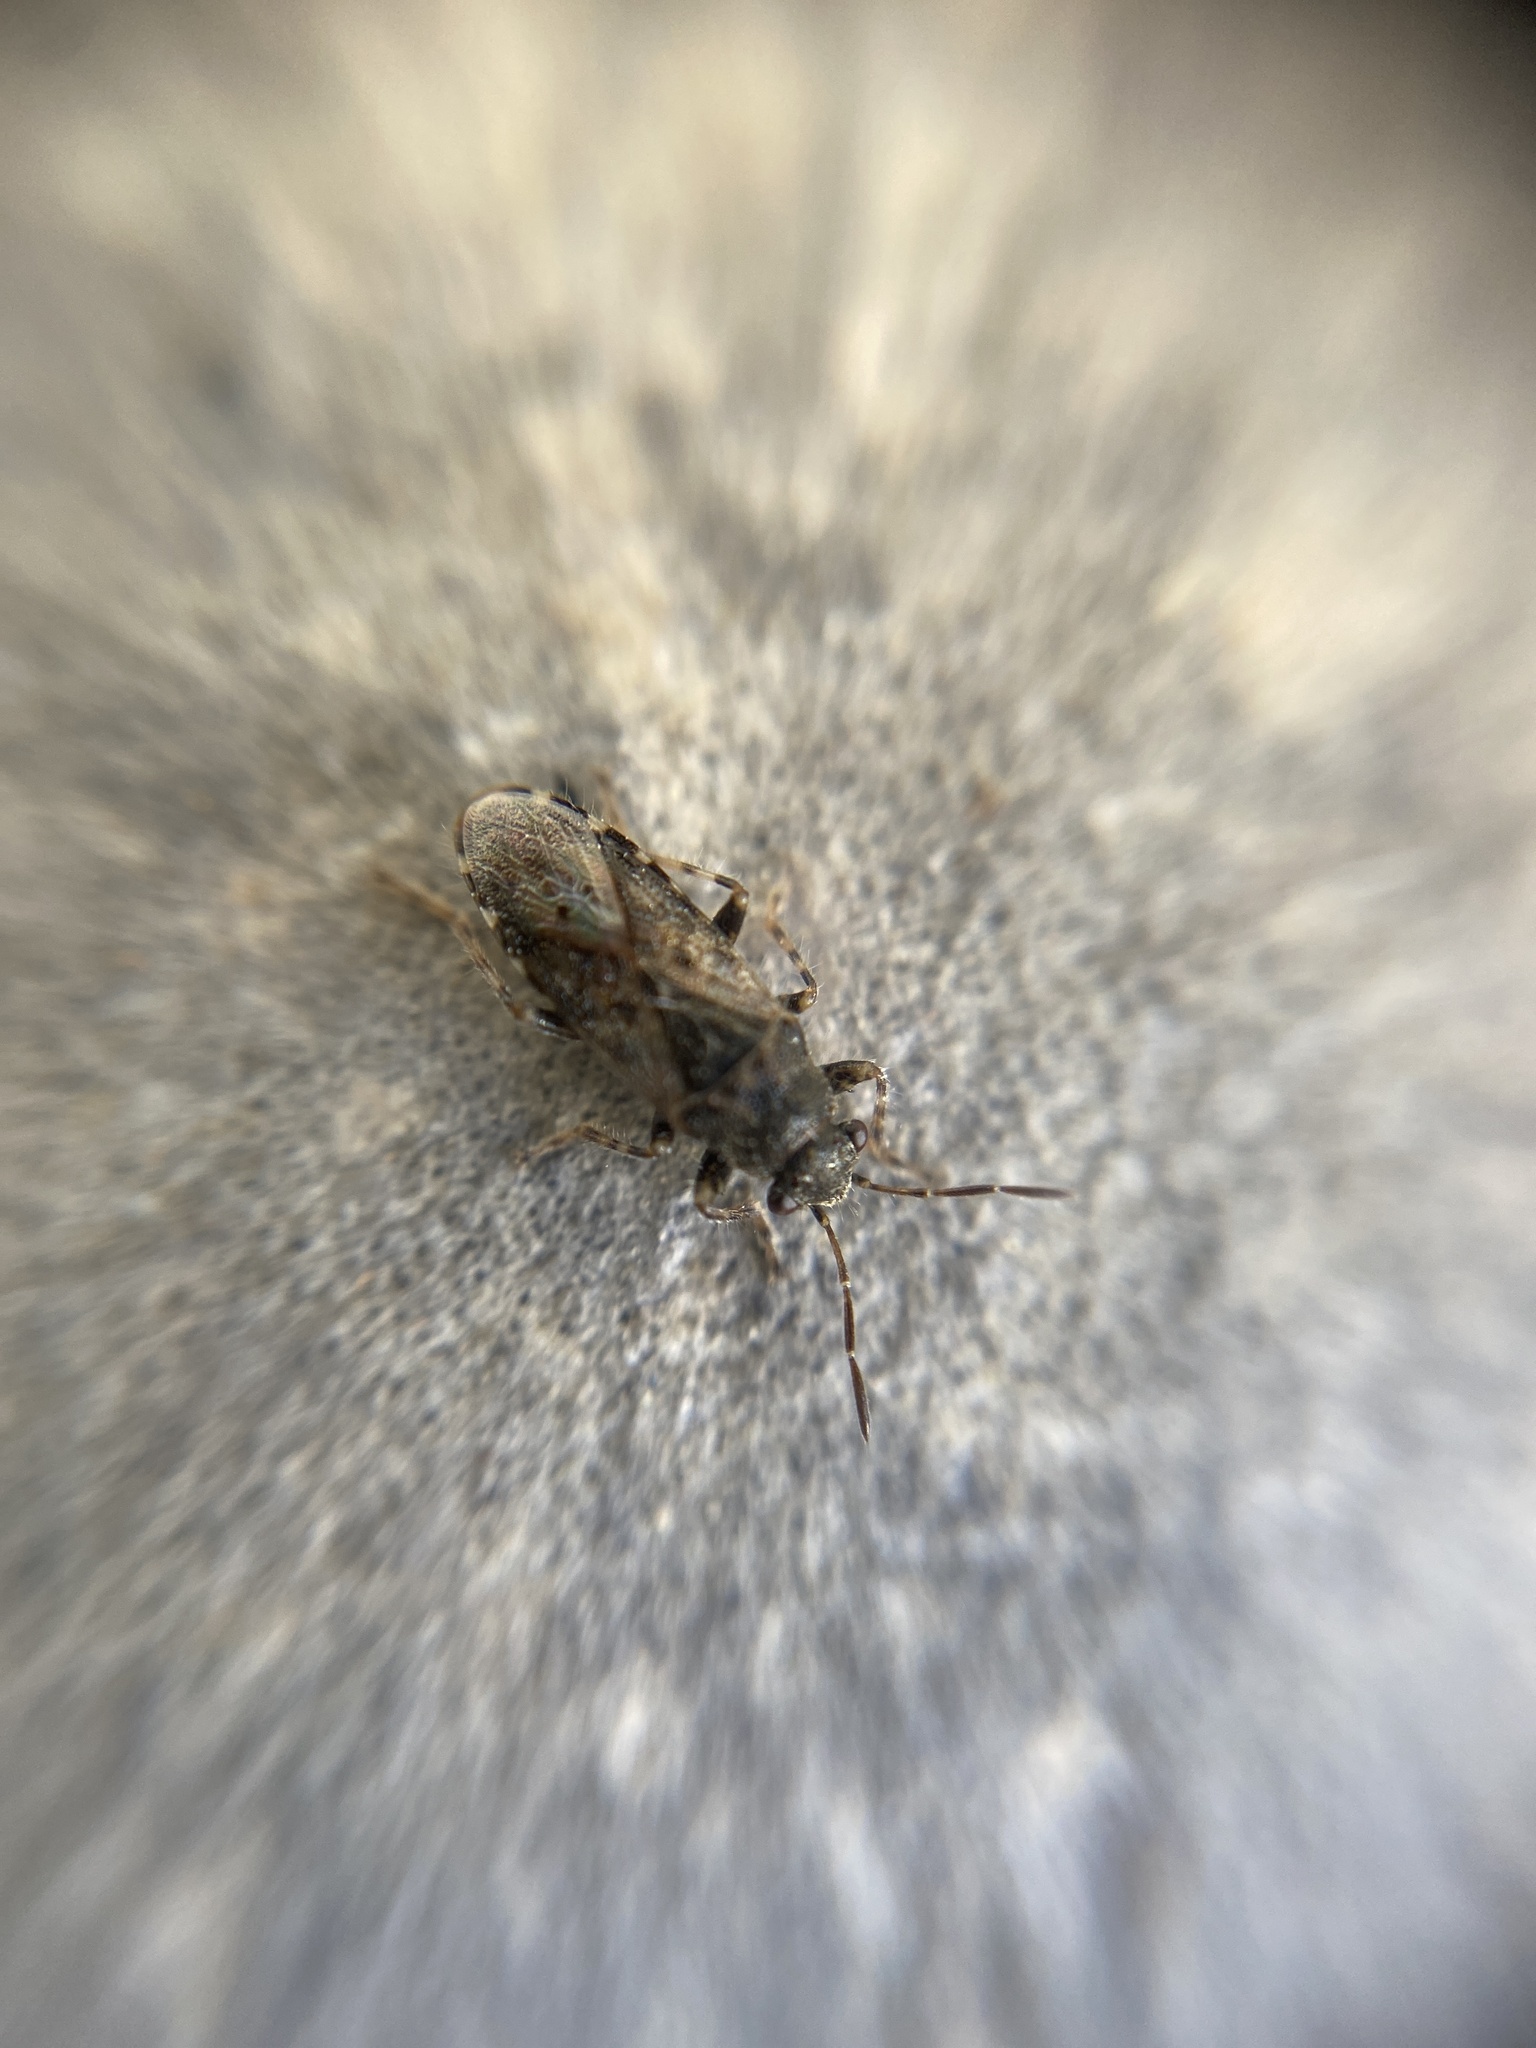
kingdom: Animalia
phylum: Arthropoda
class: Insecta
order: Hemiptera
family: Heterogastridae
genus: Heterogaster
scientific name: Heterogaster urticae
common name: Seed bug
